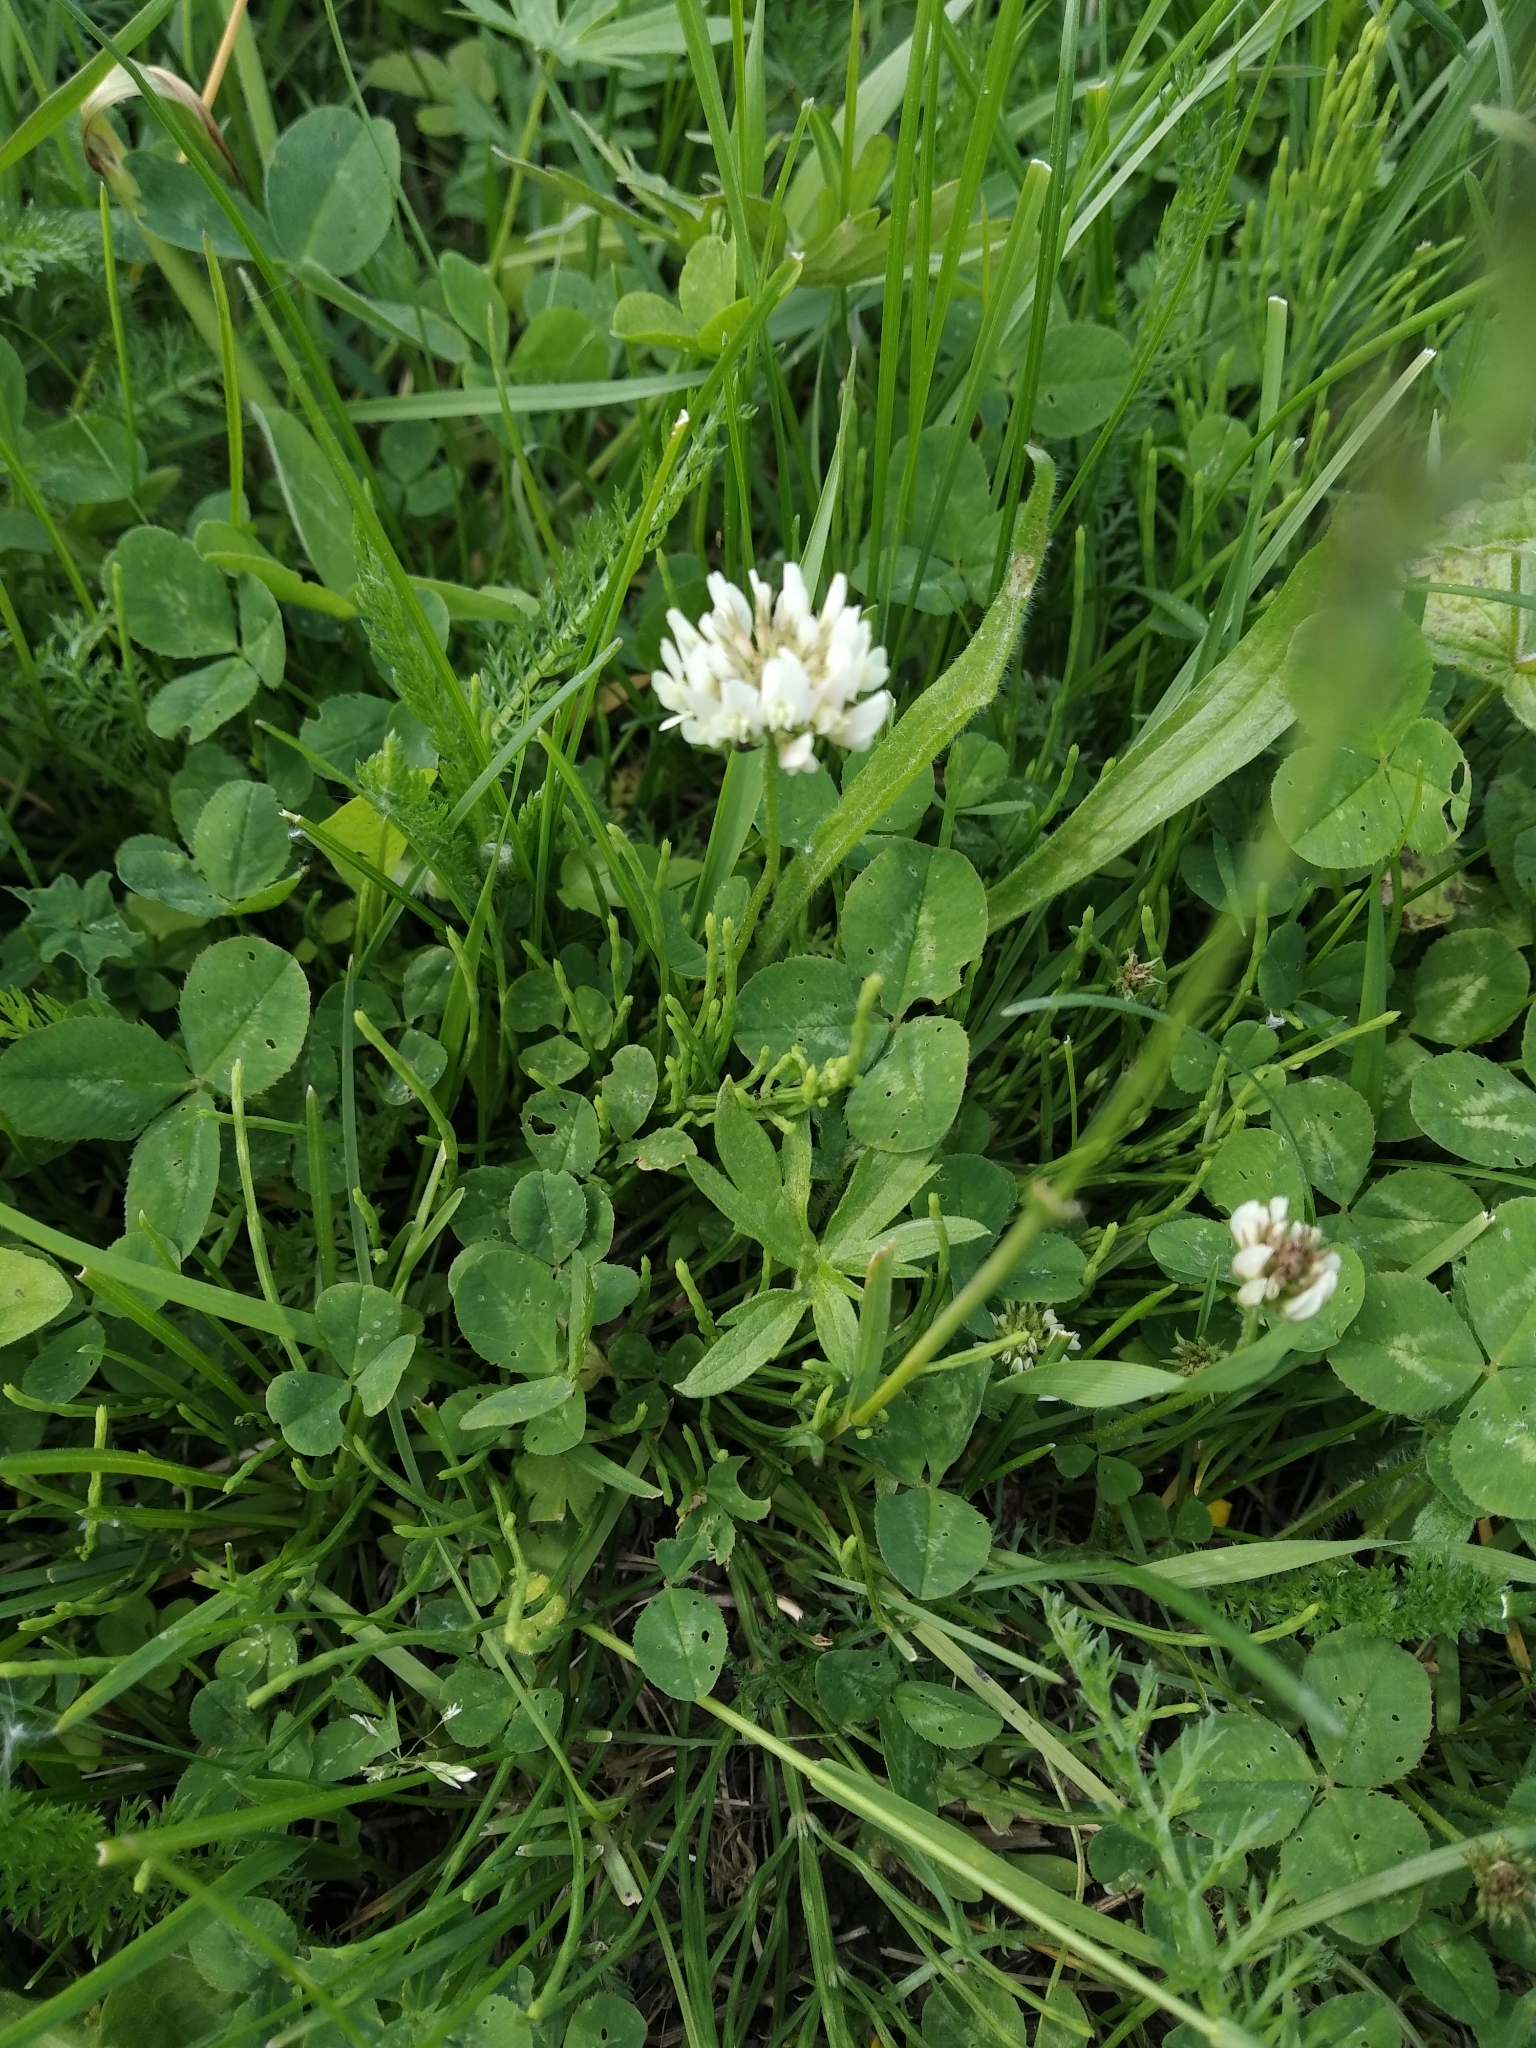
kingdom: Plantae
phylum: Tracheophyta
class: Magnoliopsida
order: Fabales
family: Fabaceae
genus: Trifolium
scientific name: Trifolium repens
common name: White clover
